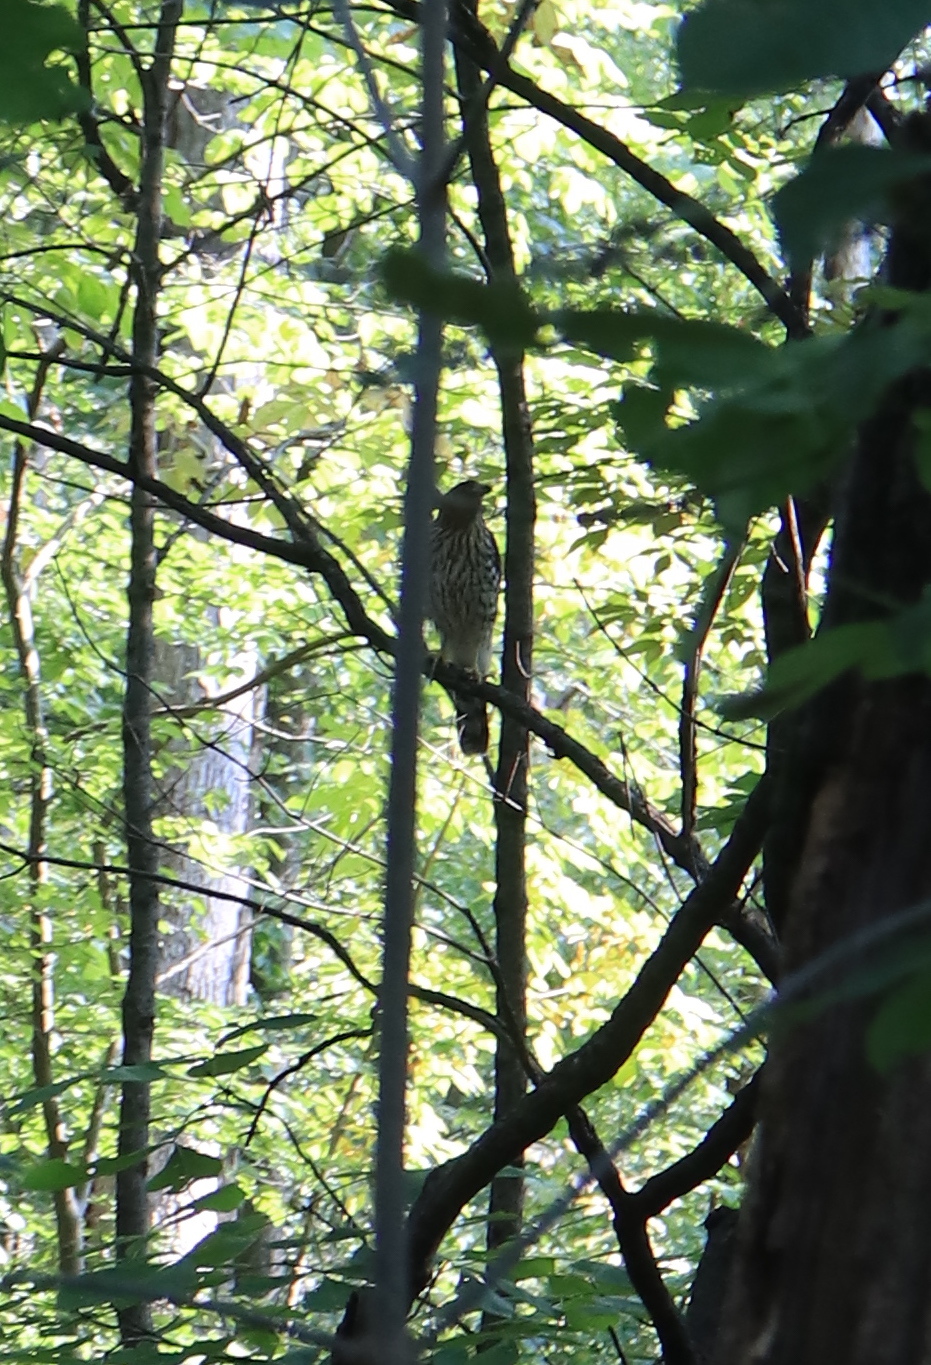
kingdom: Animalia
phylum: Chordata
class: Aves
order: Accipitriformes
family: Accipitridae
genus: Accipiter
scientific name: Accipiter cooperii
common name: Cooper's hawk
